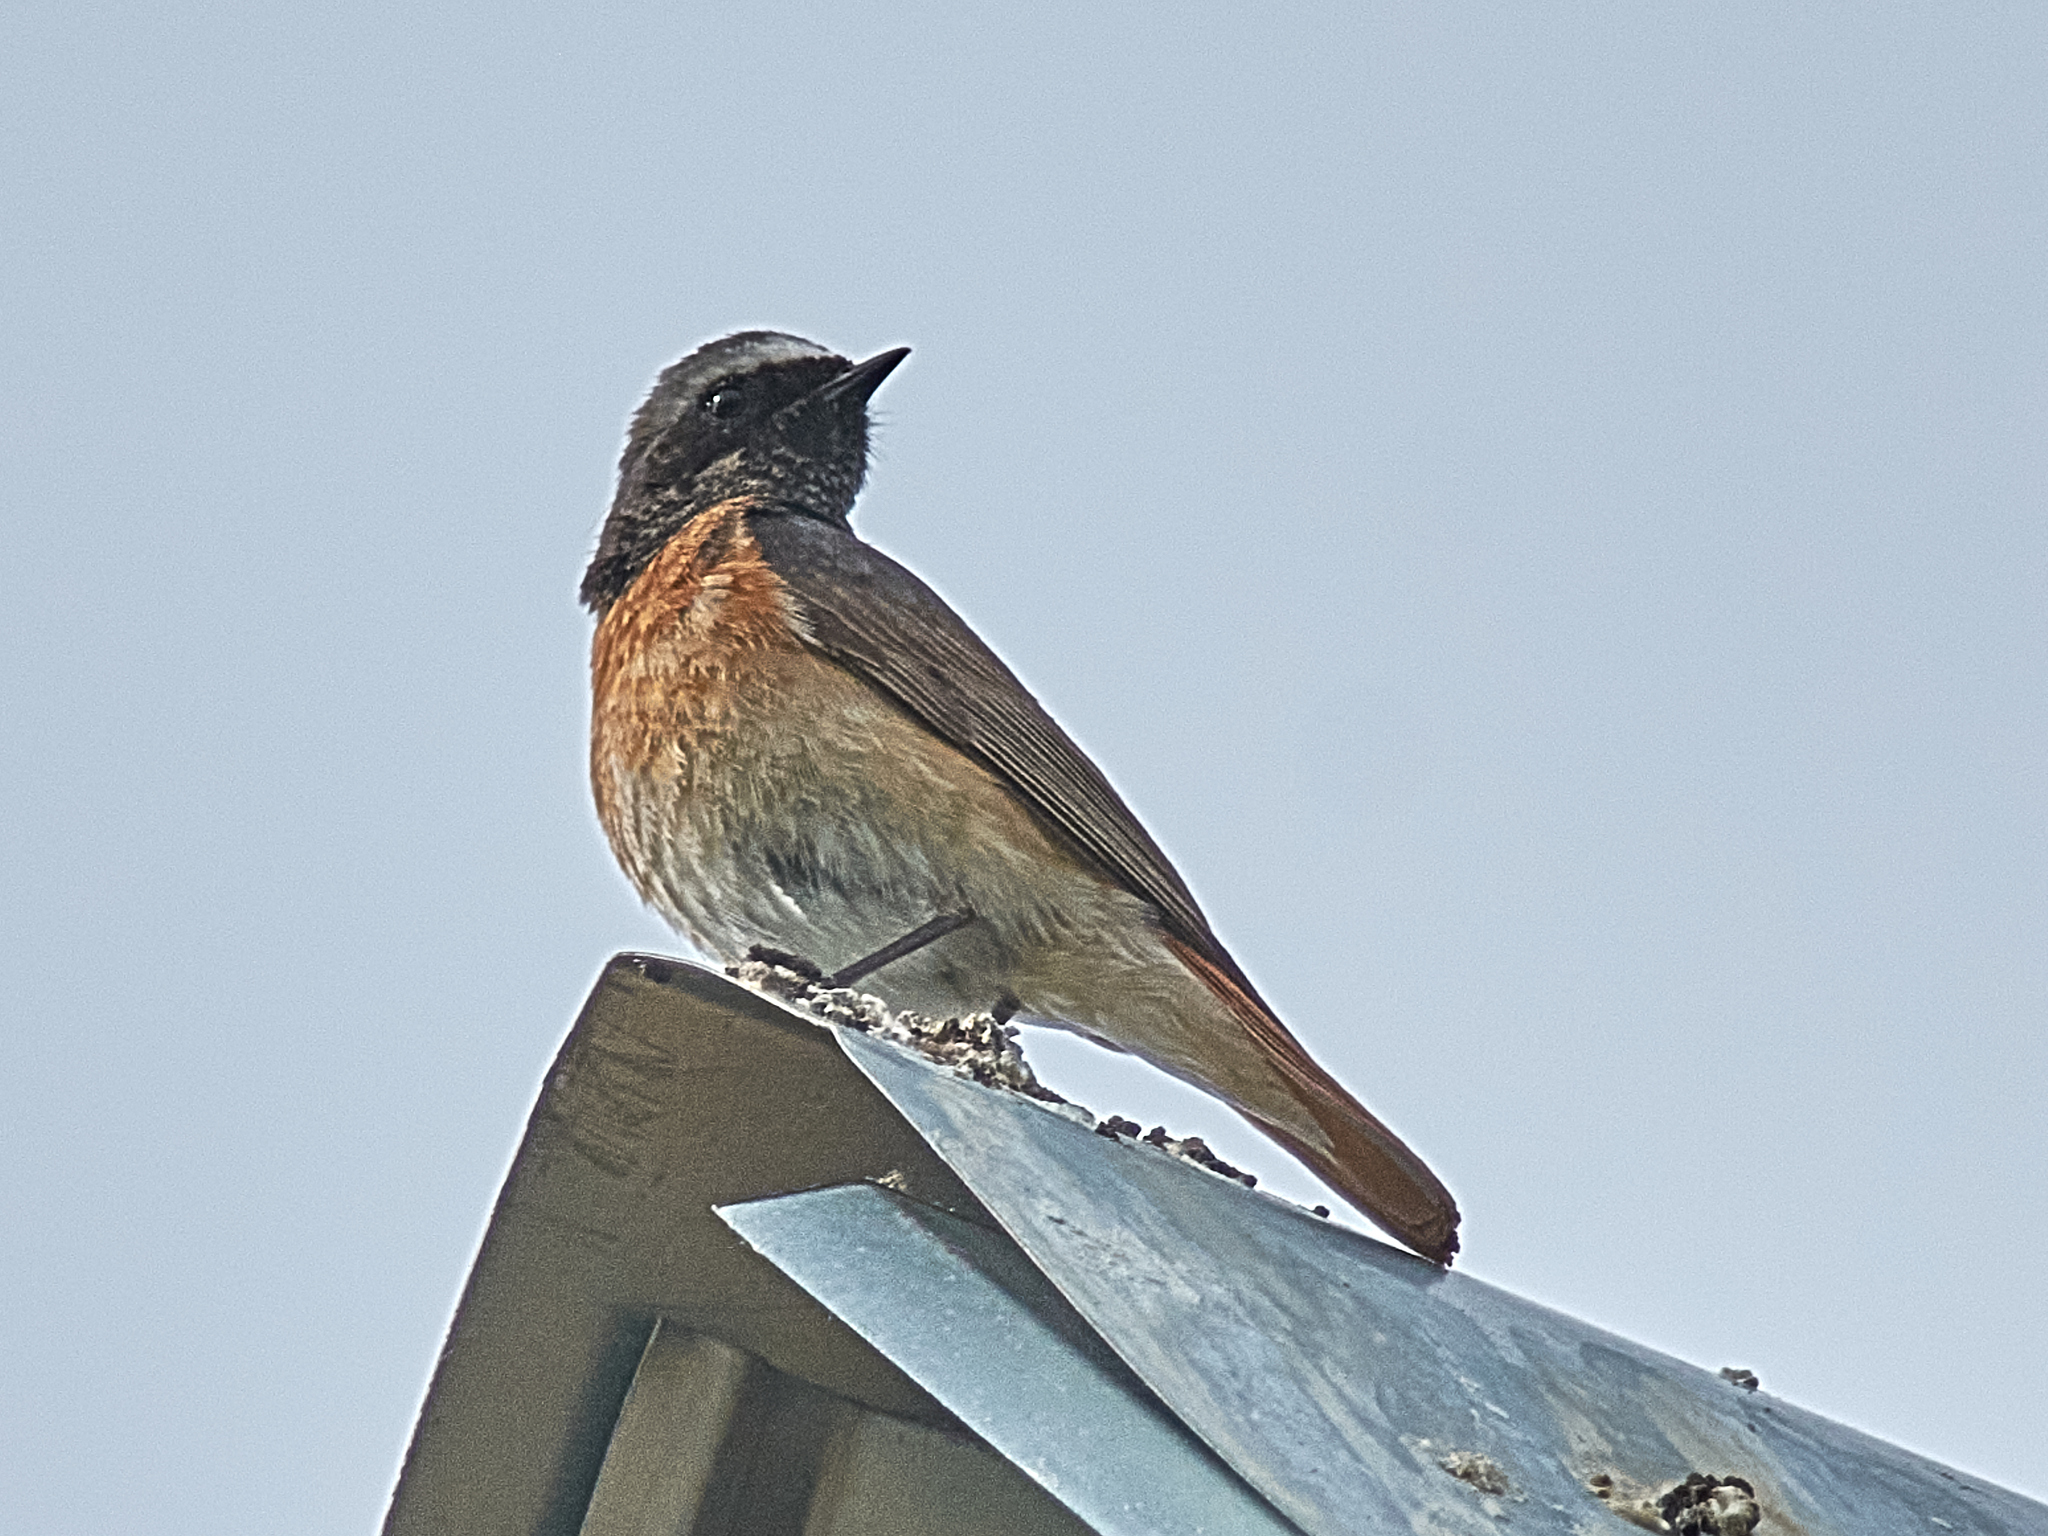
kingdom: Animalia
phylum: Chordata
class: Aves
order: Passeriformes
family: Muscicapidae
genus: Phoenicurus
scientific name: Phoenicurus phoenicurus
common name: Common redstart
